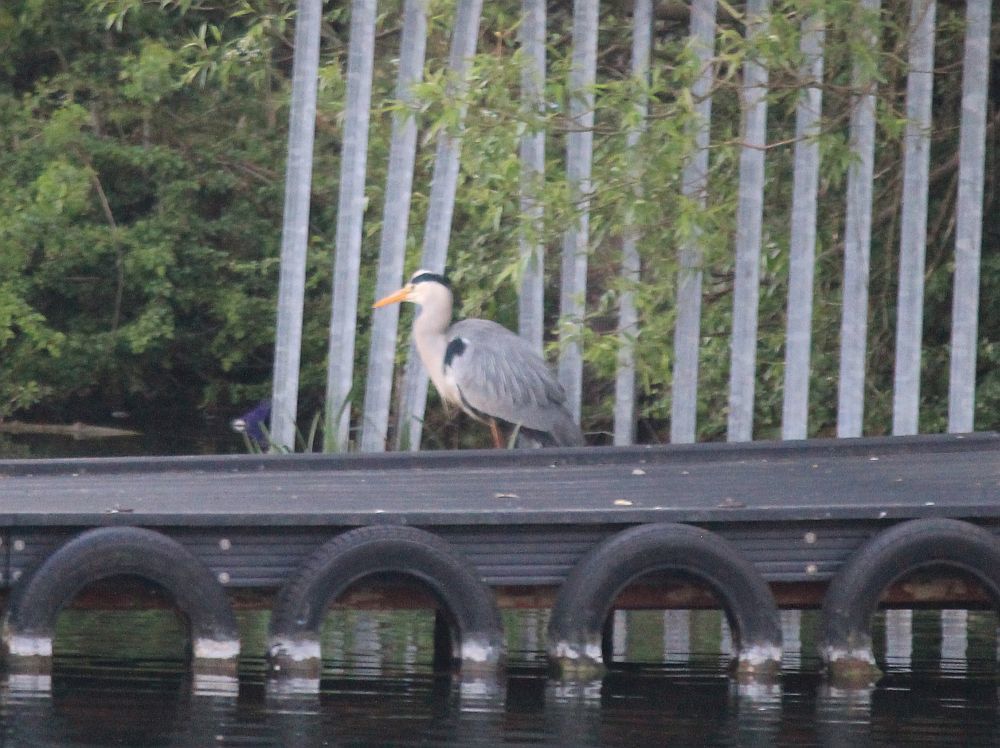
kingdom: Animalia
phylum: Chordata
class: Aves
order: Pelecaniformes
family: Ardeidae
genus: Ardea
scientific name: Ardea cinerea
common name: Grey heron
